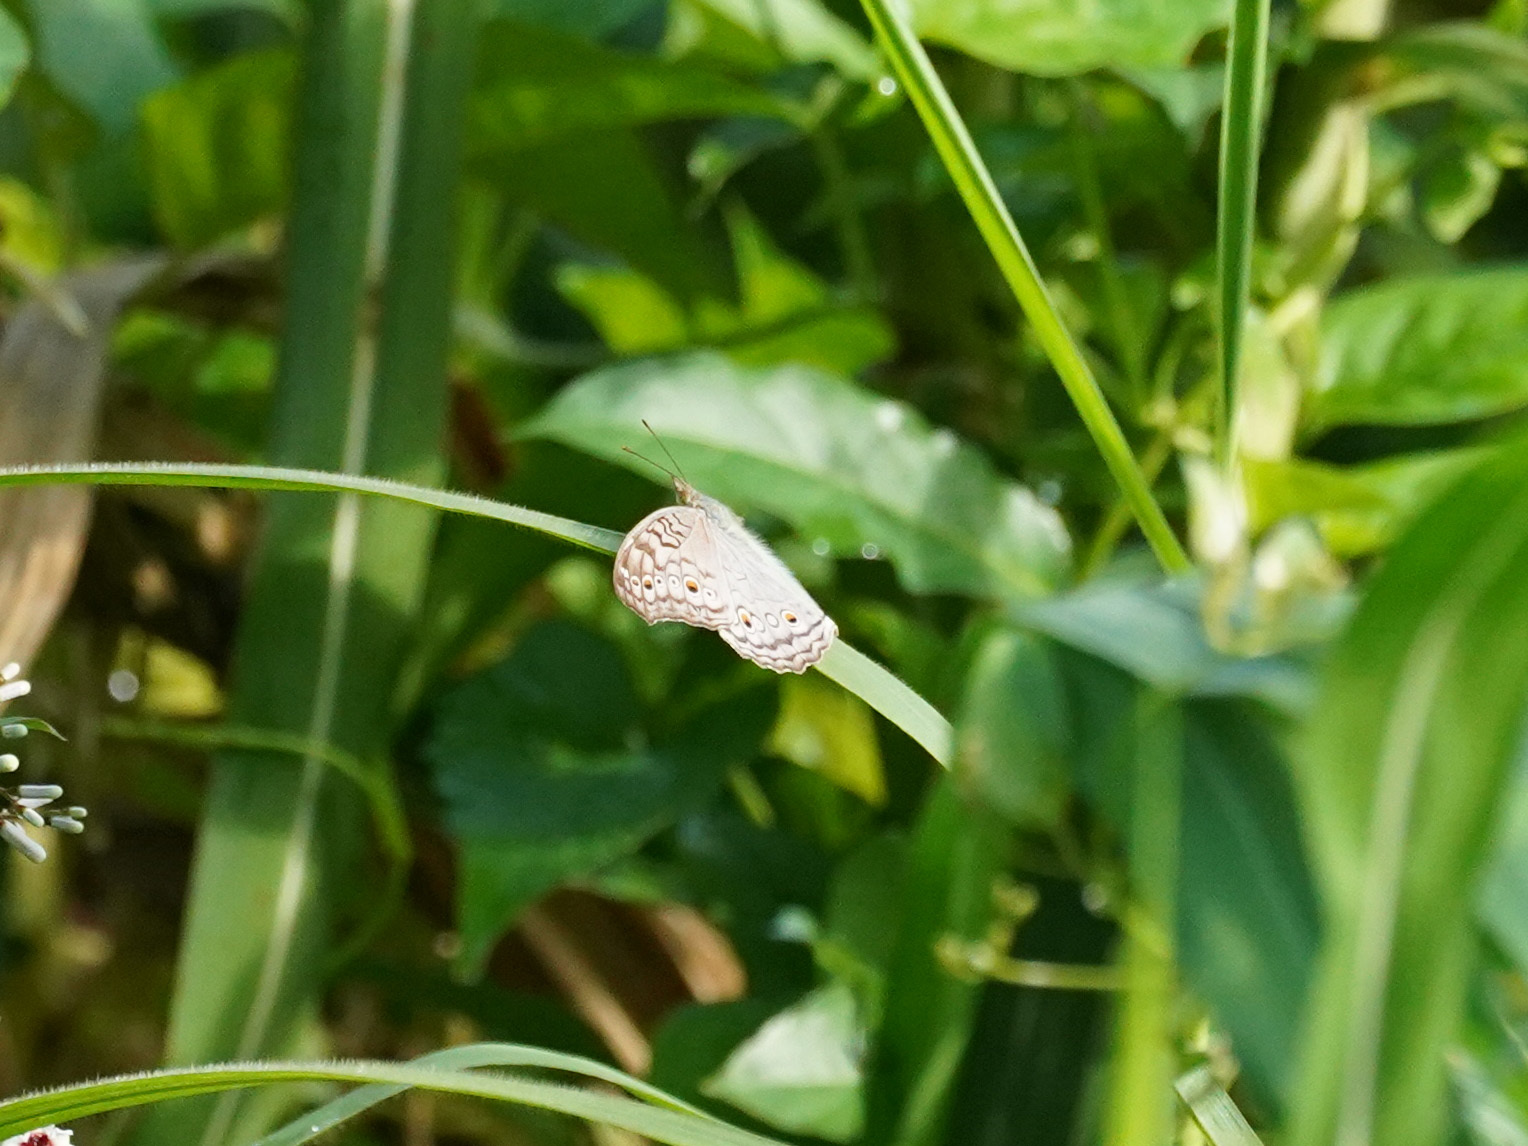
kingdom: Animalia
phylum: Arthropoda
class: Insecta
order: Lepidoptera
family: Nymphalidae
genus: Junonia
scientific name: Junonia atlites
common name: Grey pansy
